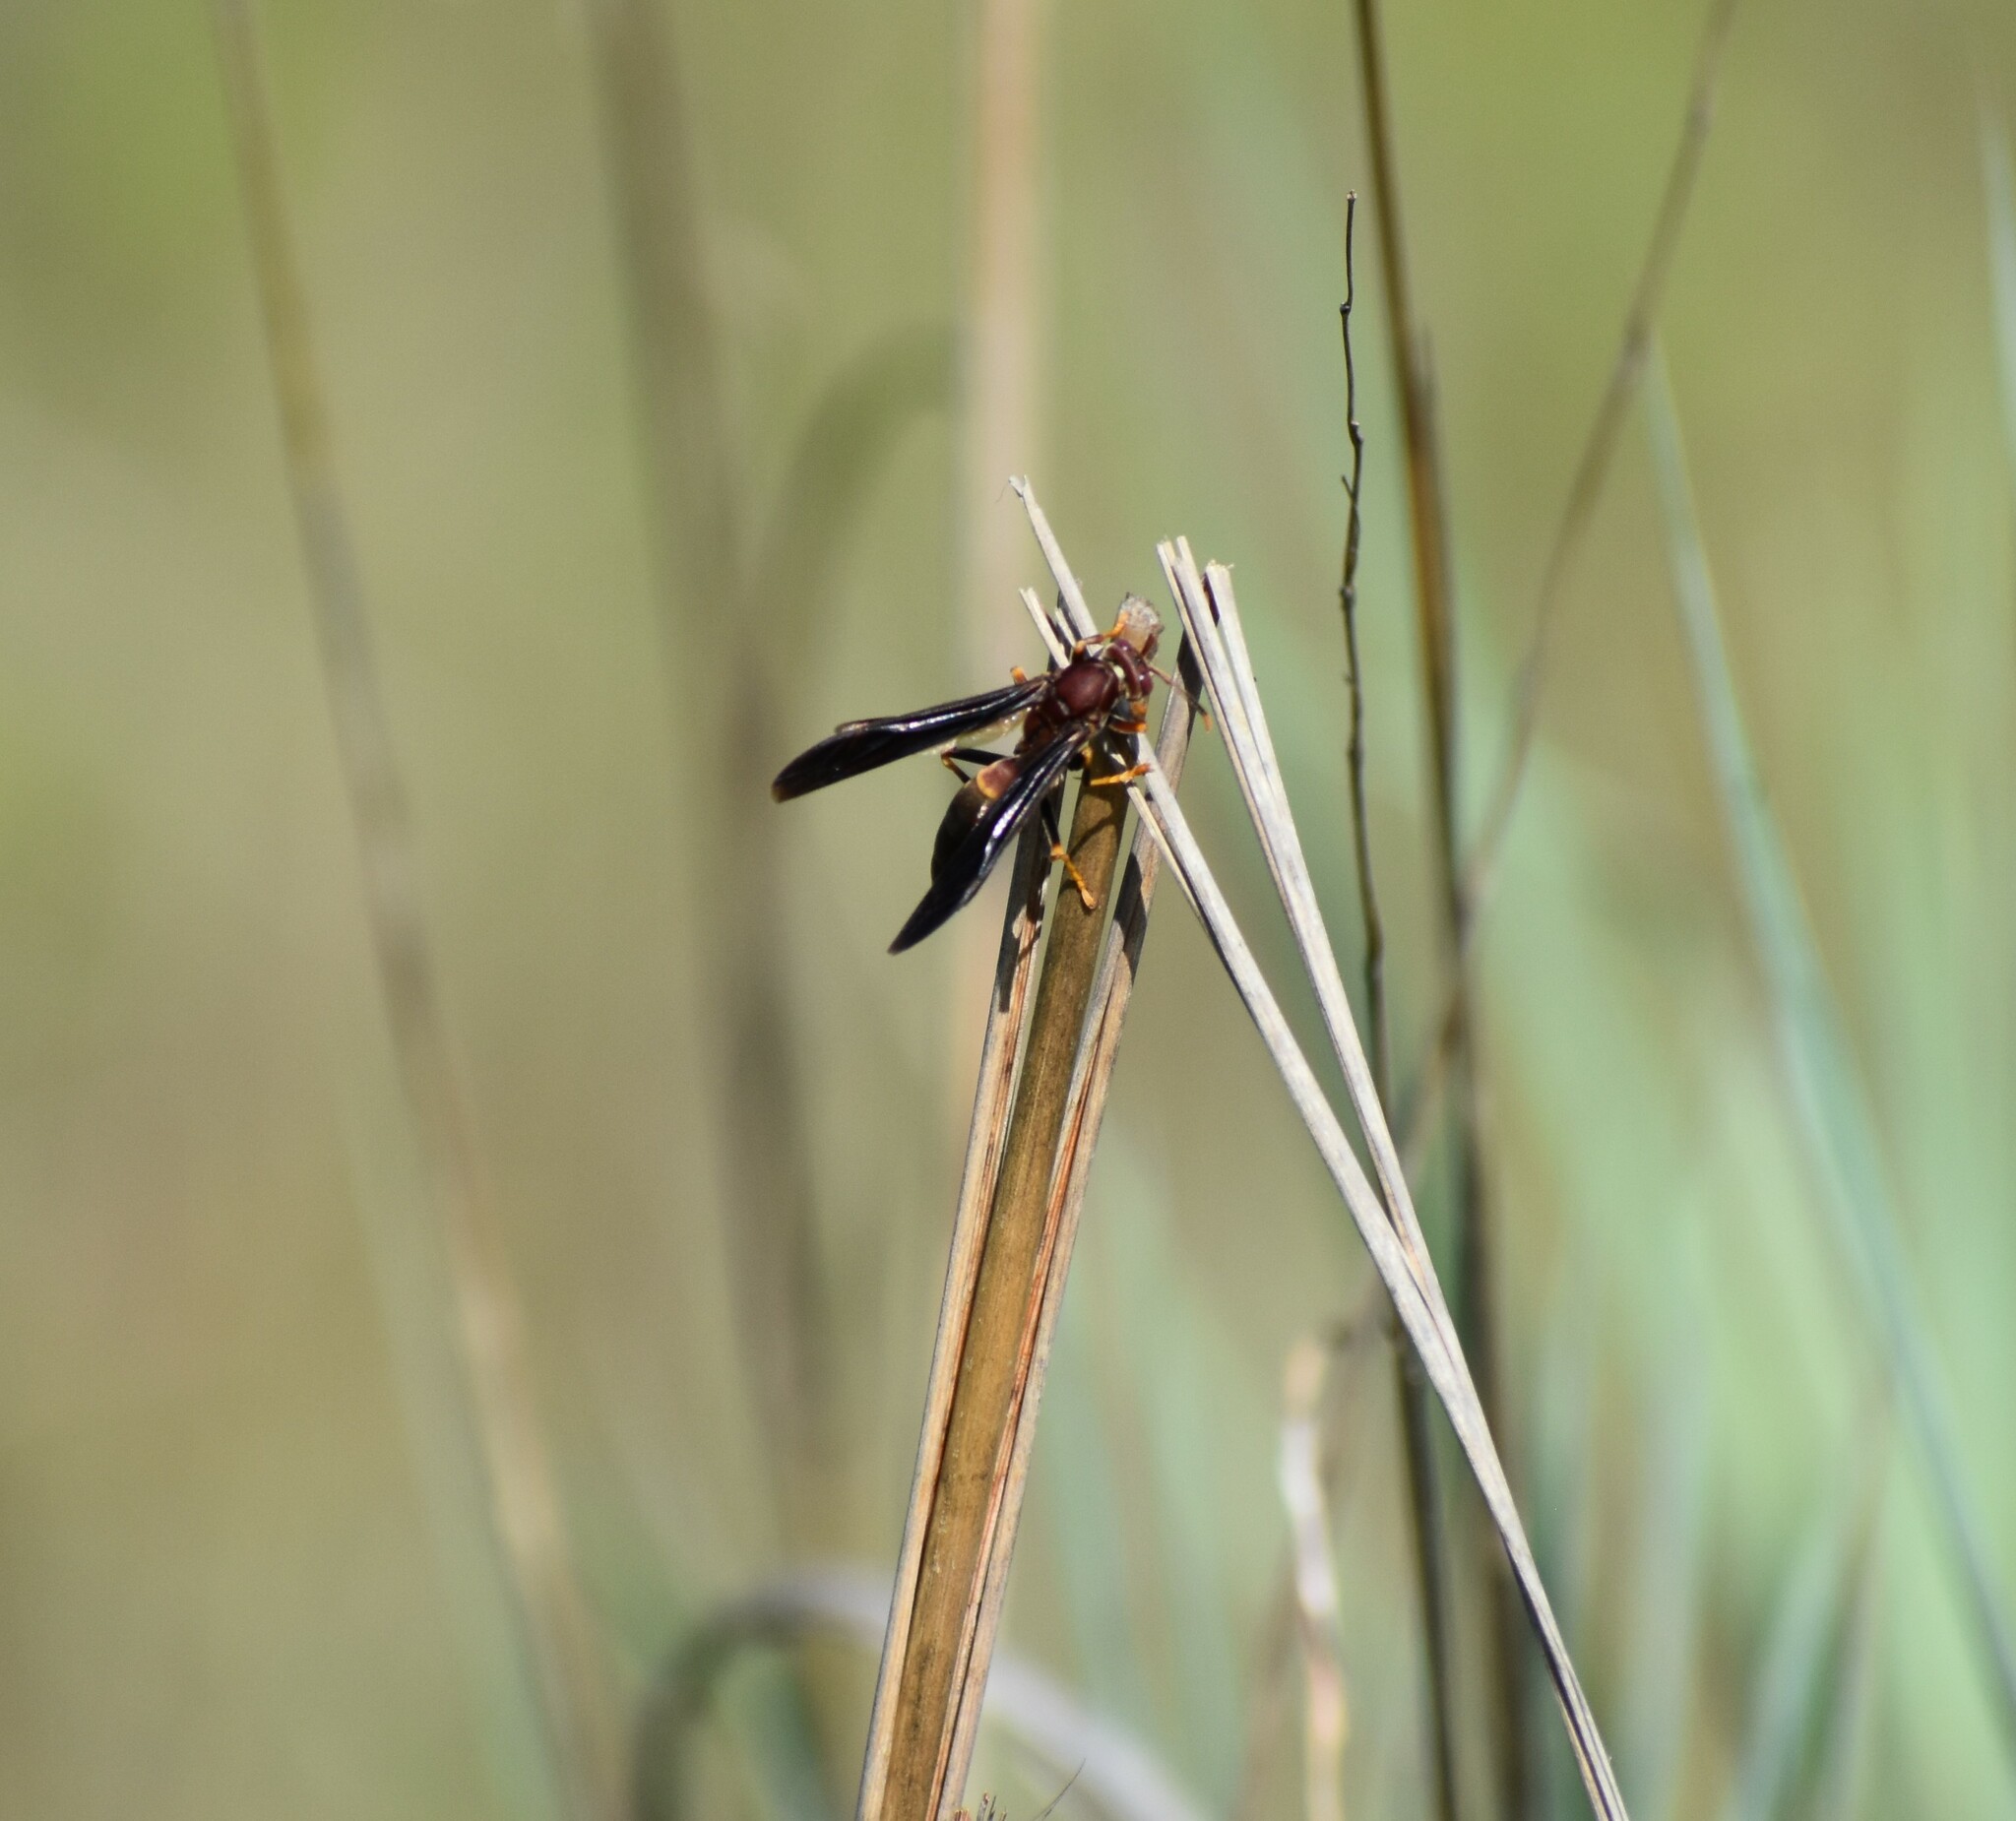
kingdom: Animalia
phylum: Arthropoda
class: Insecta
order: Hymenoptera
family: Eumenidae
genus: Polistes
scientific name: Polistes annularis
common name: Ringed paper wasp
